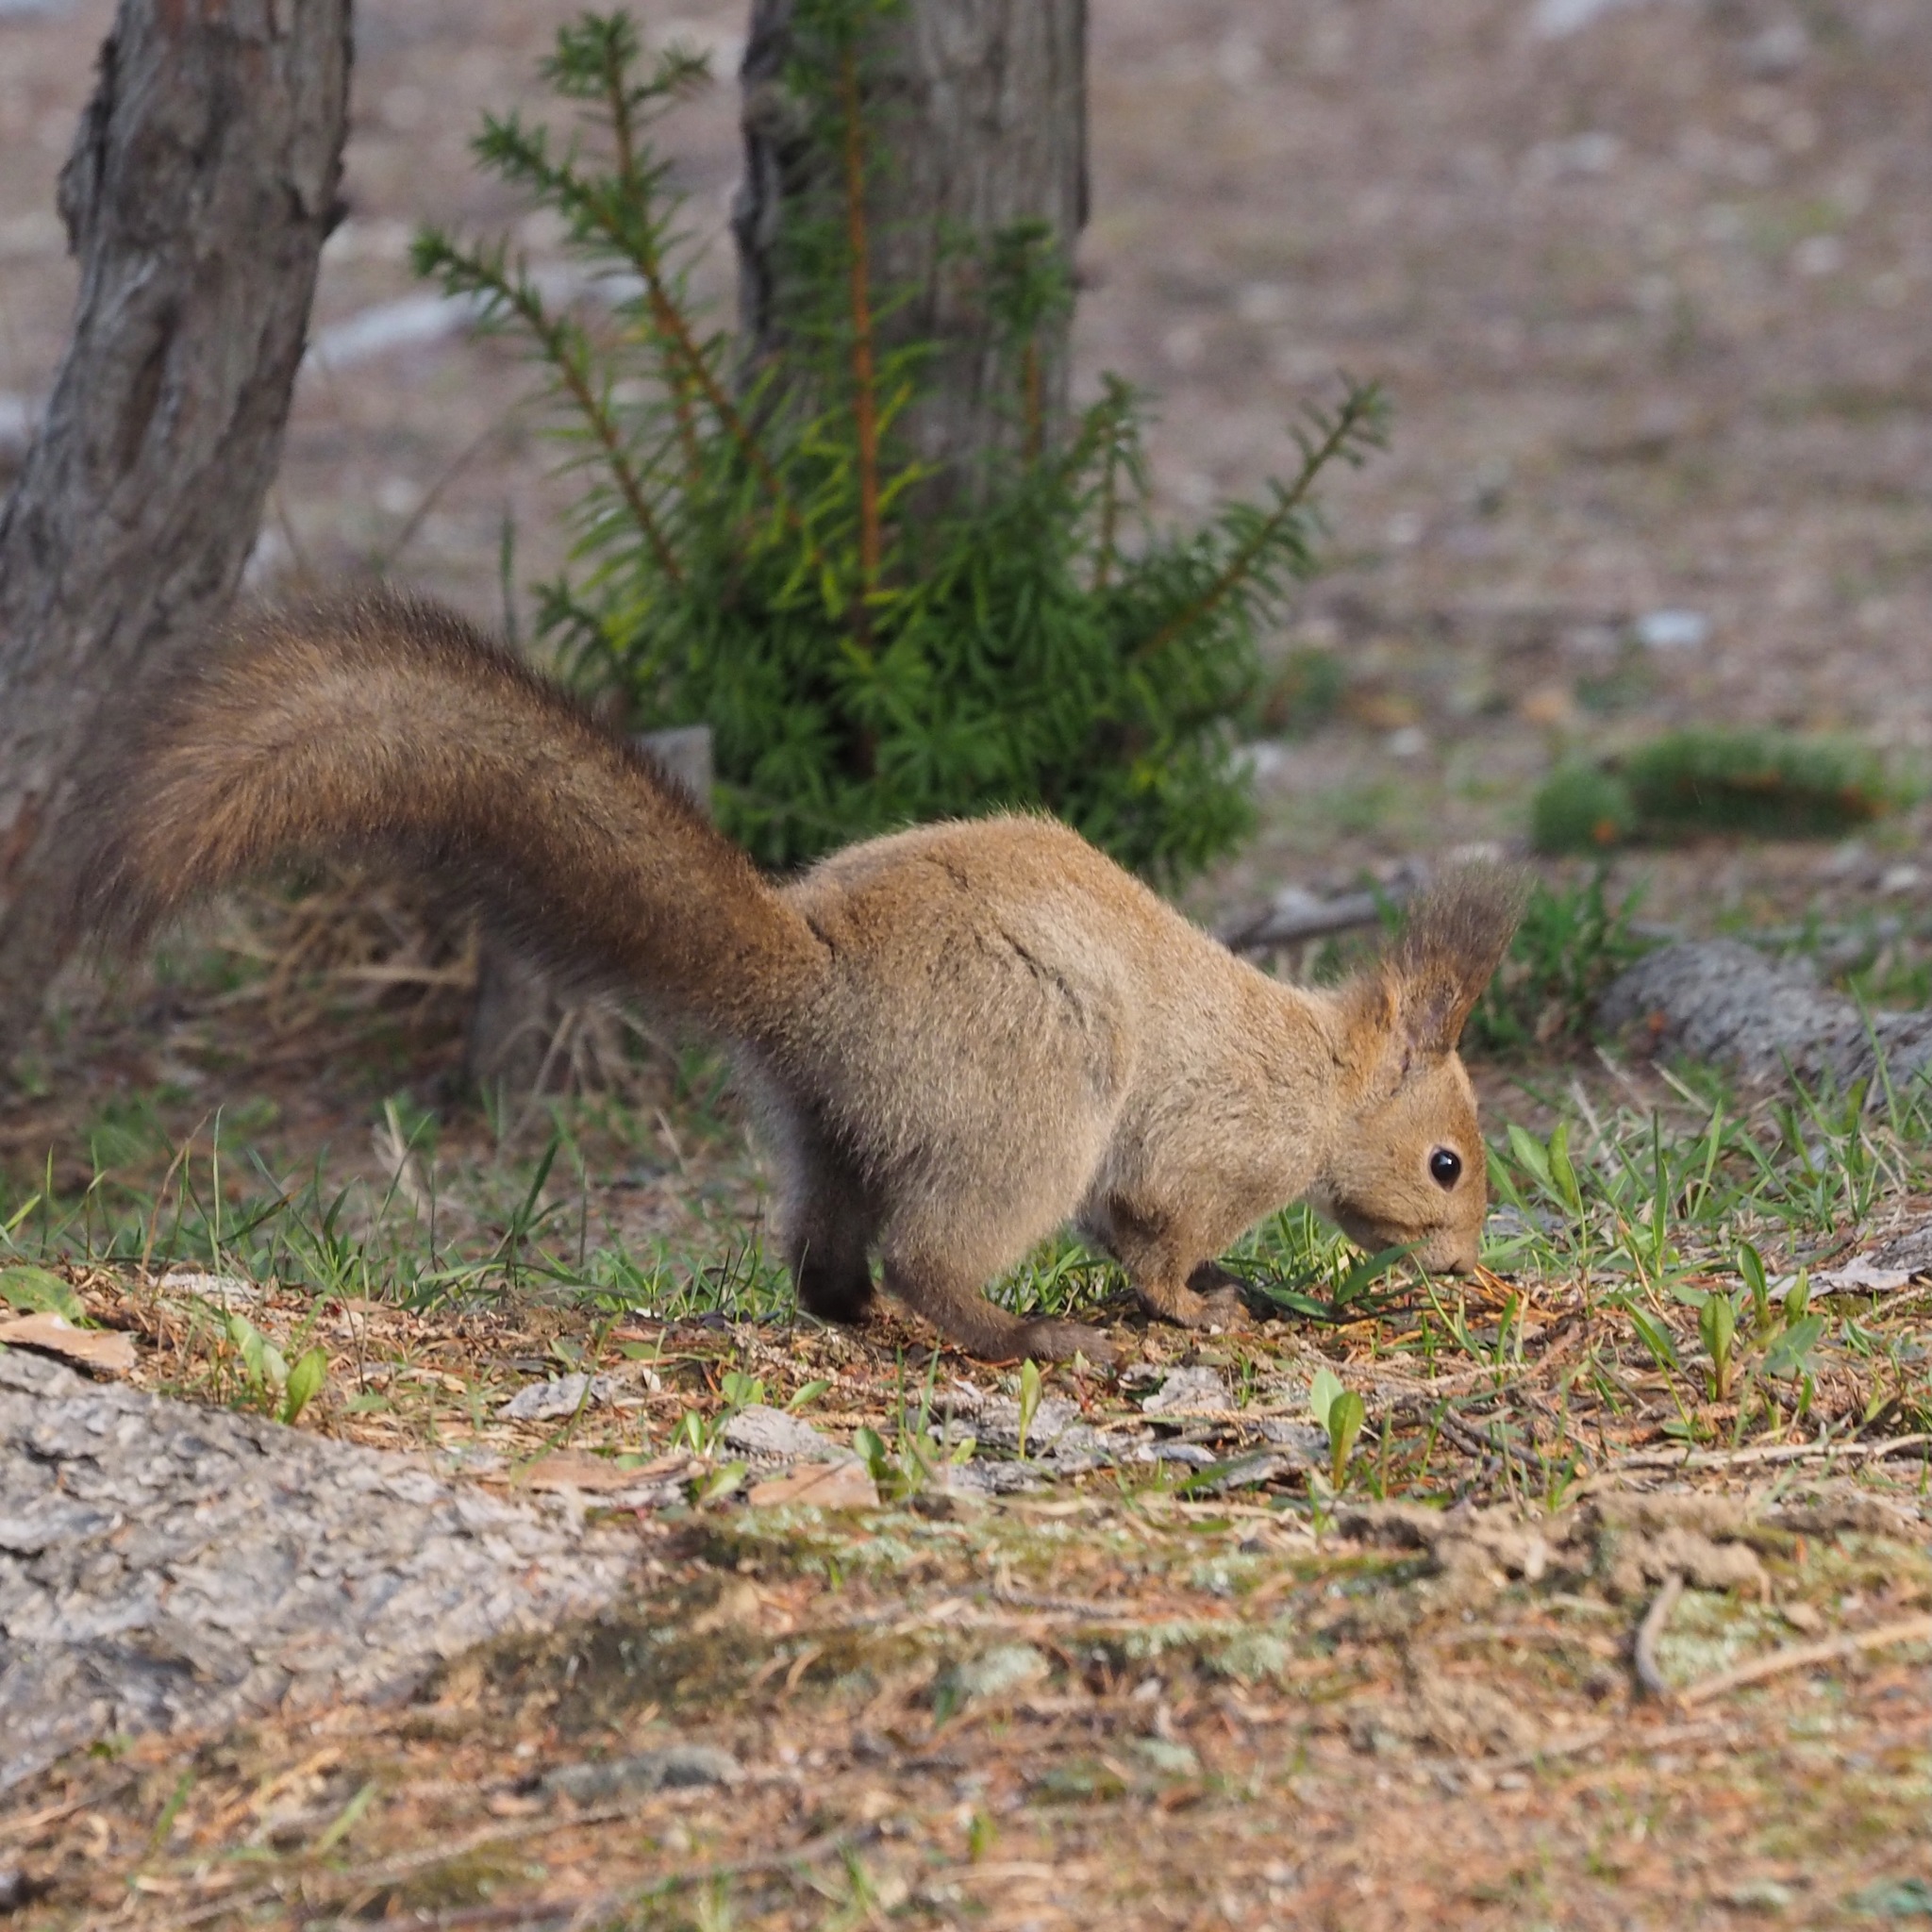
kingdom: Animalia
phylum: Chordata
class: Mammalia
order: Rodentia
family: Sciuridae
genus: Sciurus
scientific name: Sciurus vulgaris
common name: Eurasian red squirrel
